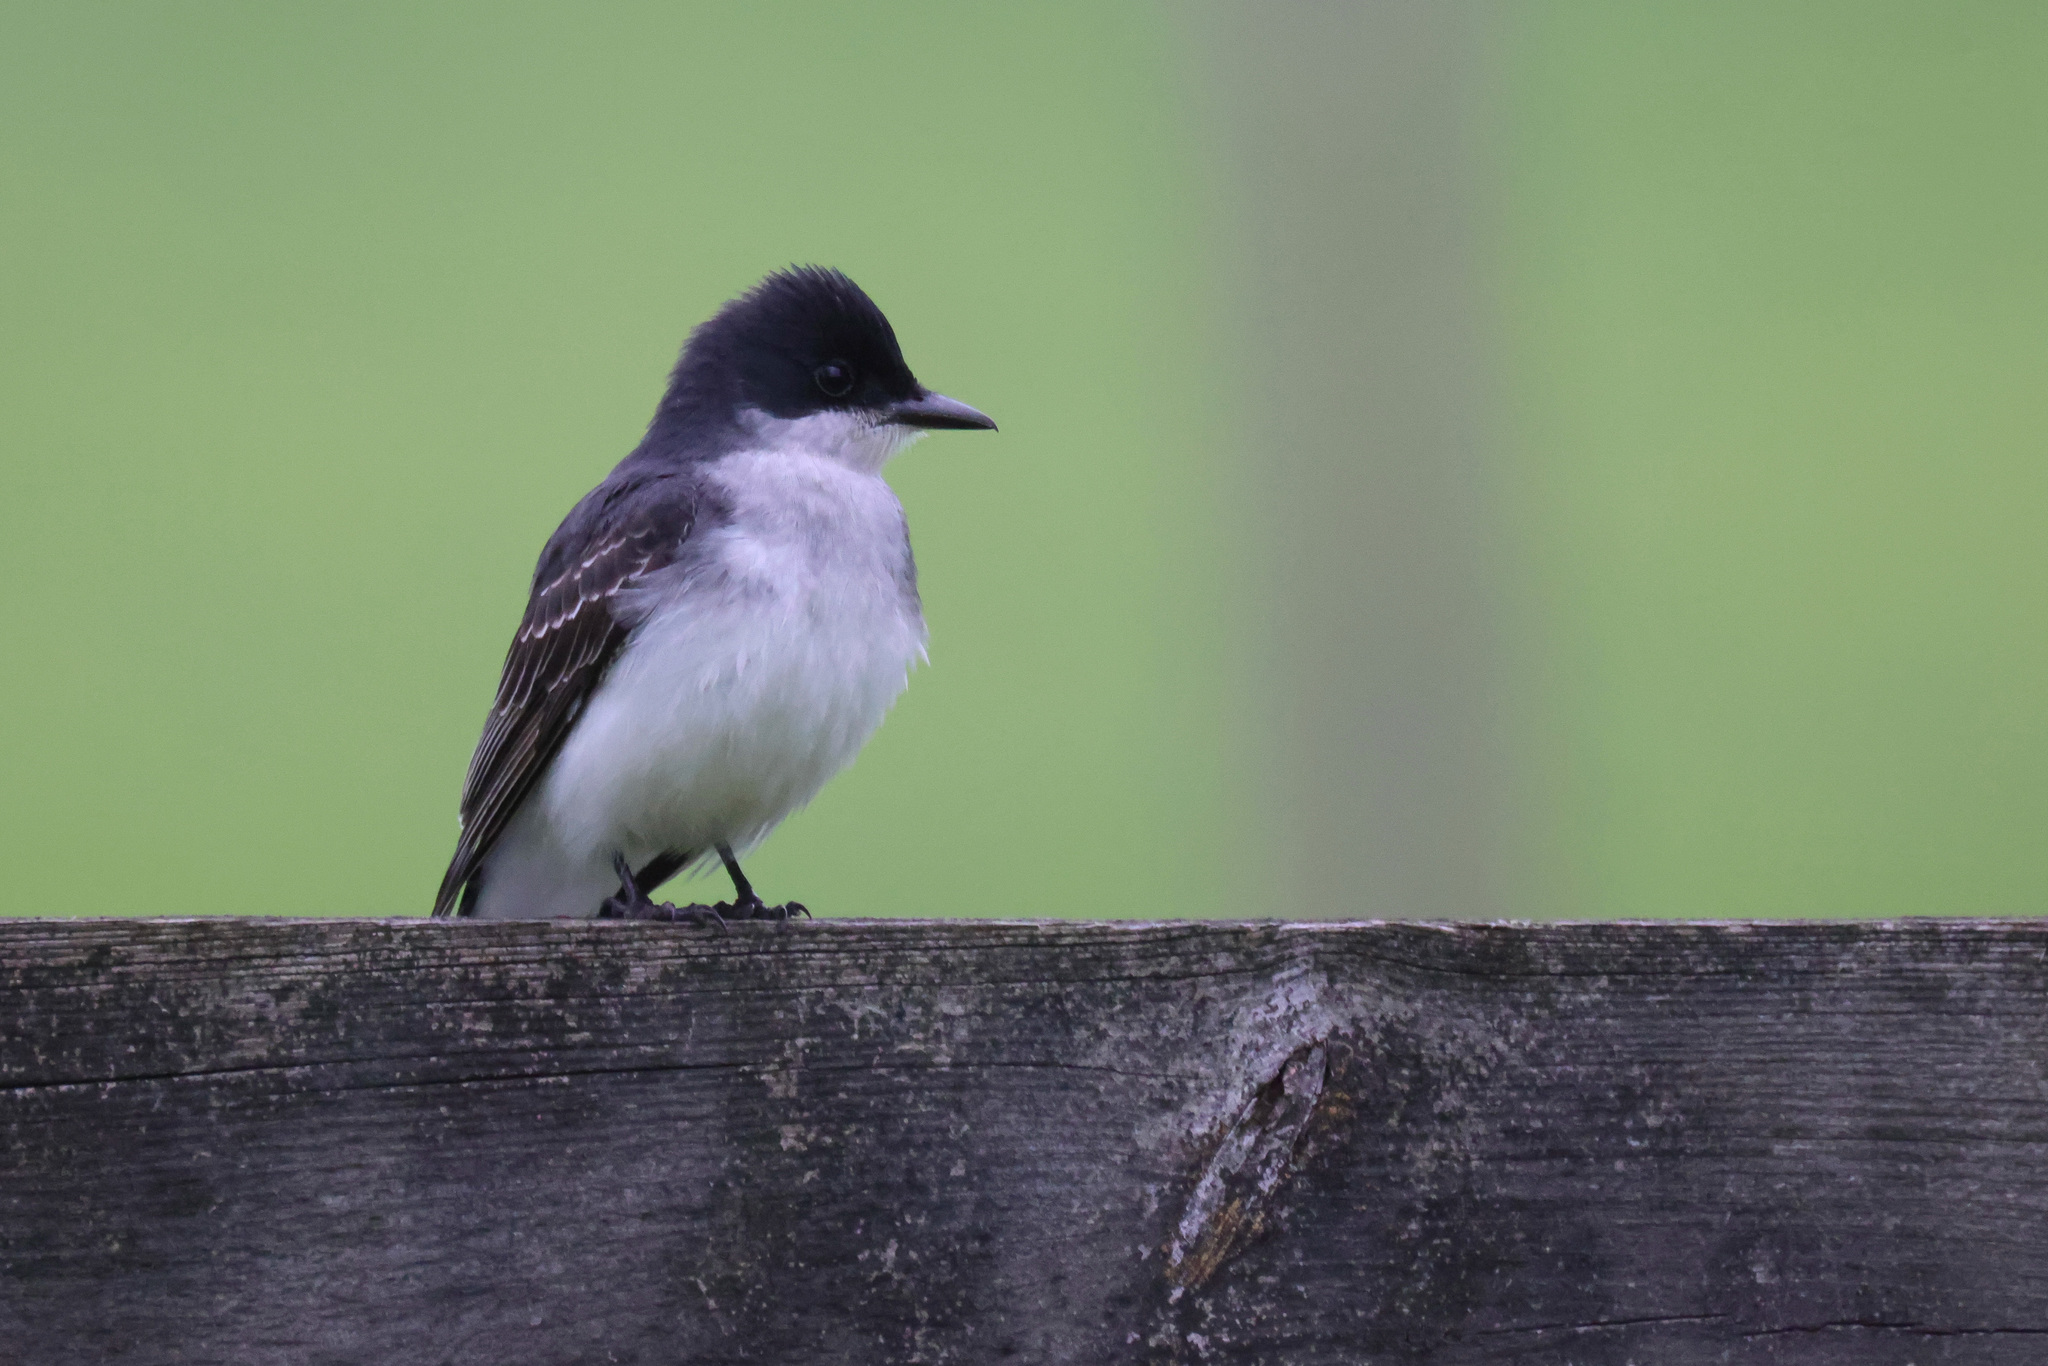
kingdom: Animalia
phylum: Chordata
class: Aves
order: Passeriformes
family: Tyrannidae
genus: Tyrannus
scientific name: Tyrannus tyrannus
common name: Eastern kingbird
